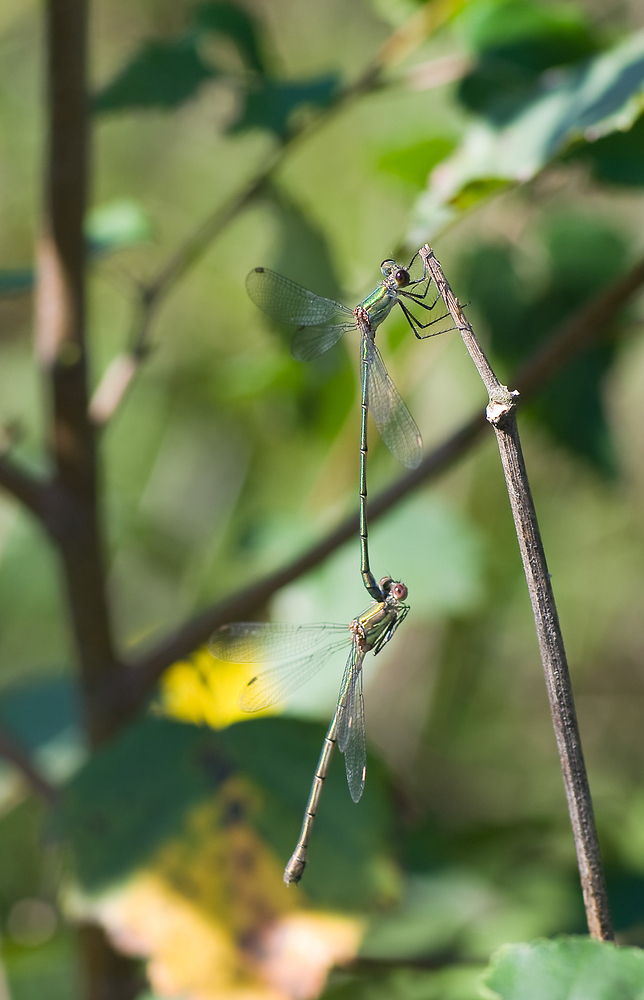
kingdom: Animalia
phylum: Arthropoda
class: Insecta
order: Odonata
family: Lestidae
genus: Chalcolestes
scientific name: Chalcolestes viridis
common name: Green emerald damselfly
